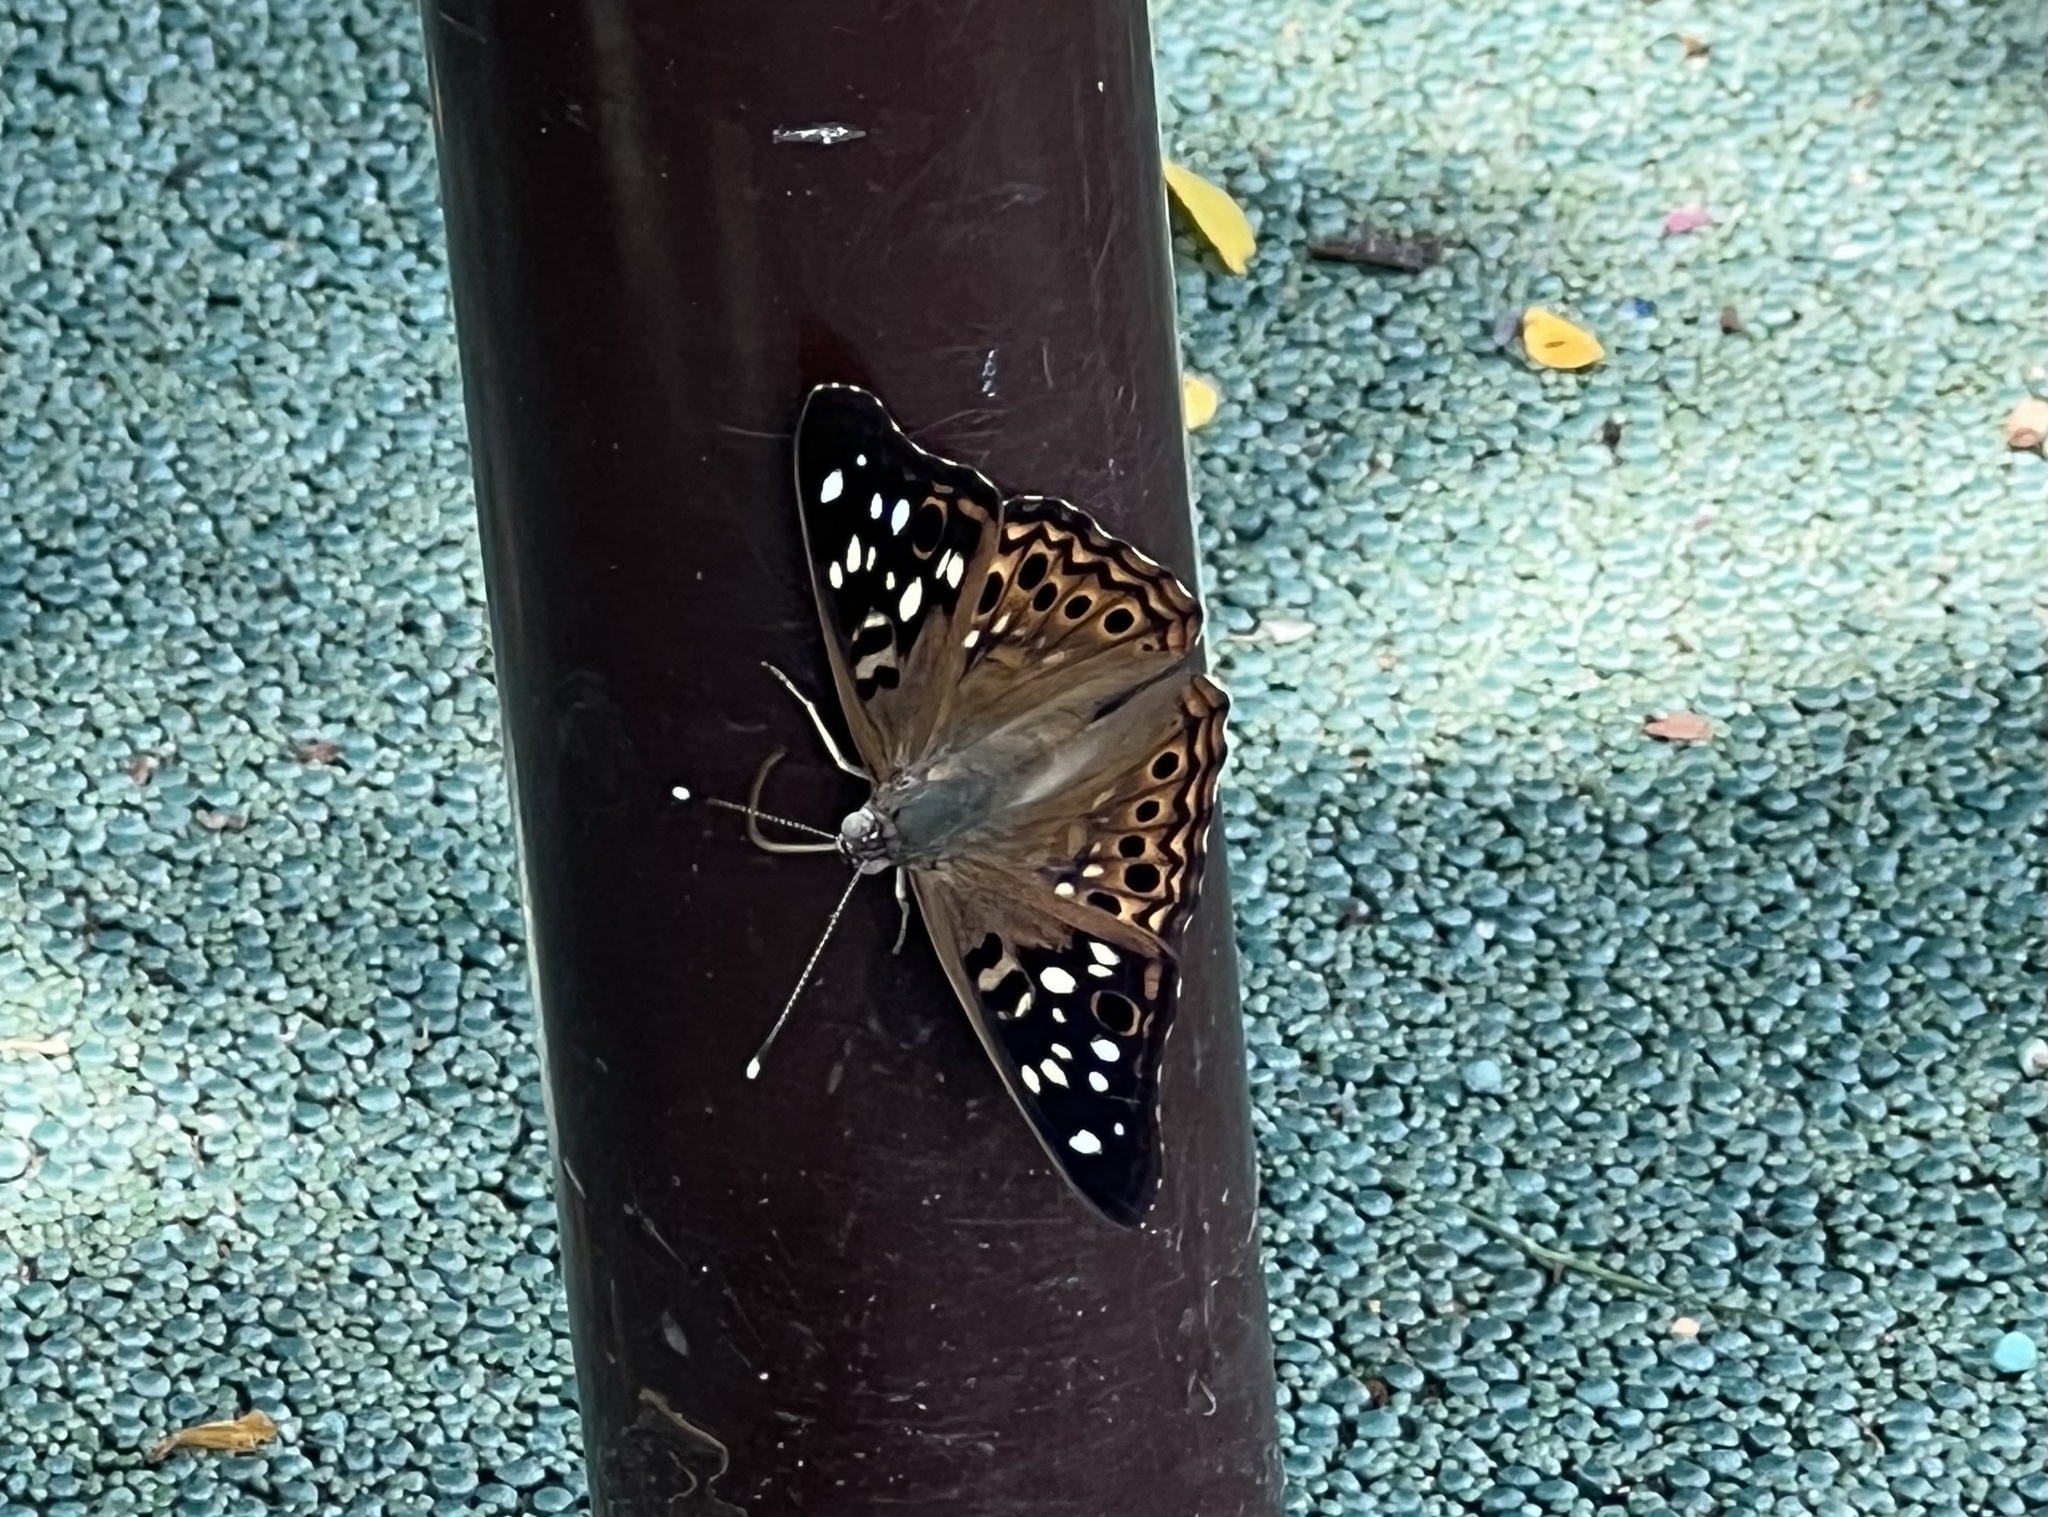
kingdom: Animalia
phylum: Arthropoda
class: Insecta
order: Lepidoptera
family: Nymphalidae
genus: Asterocampa
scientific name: Asterocampa celtis
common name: Hackberry emperor
